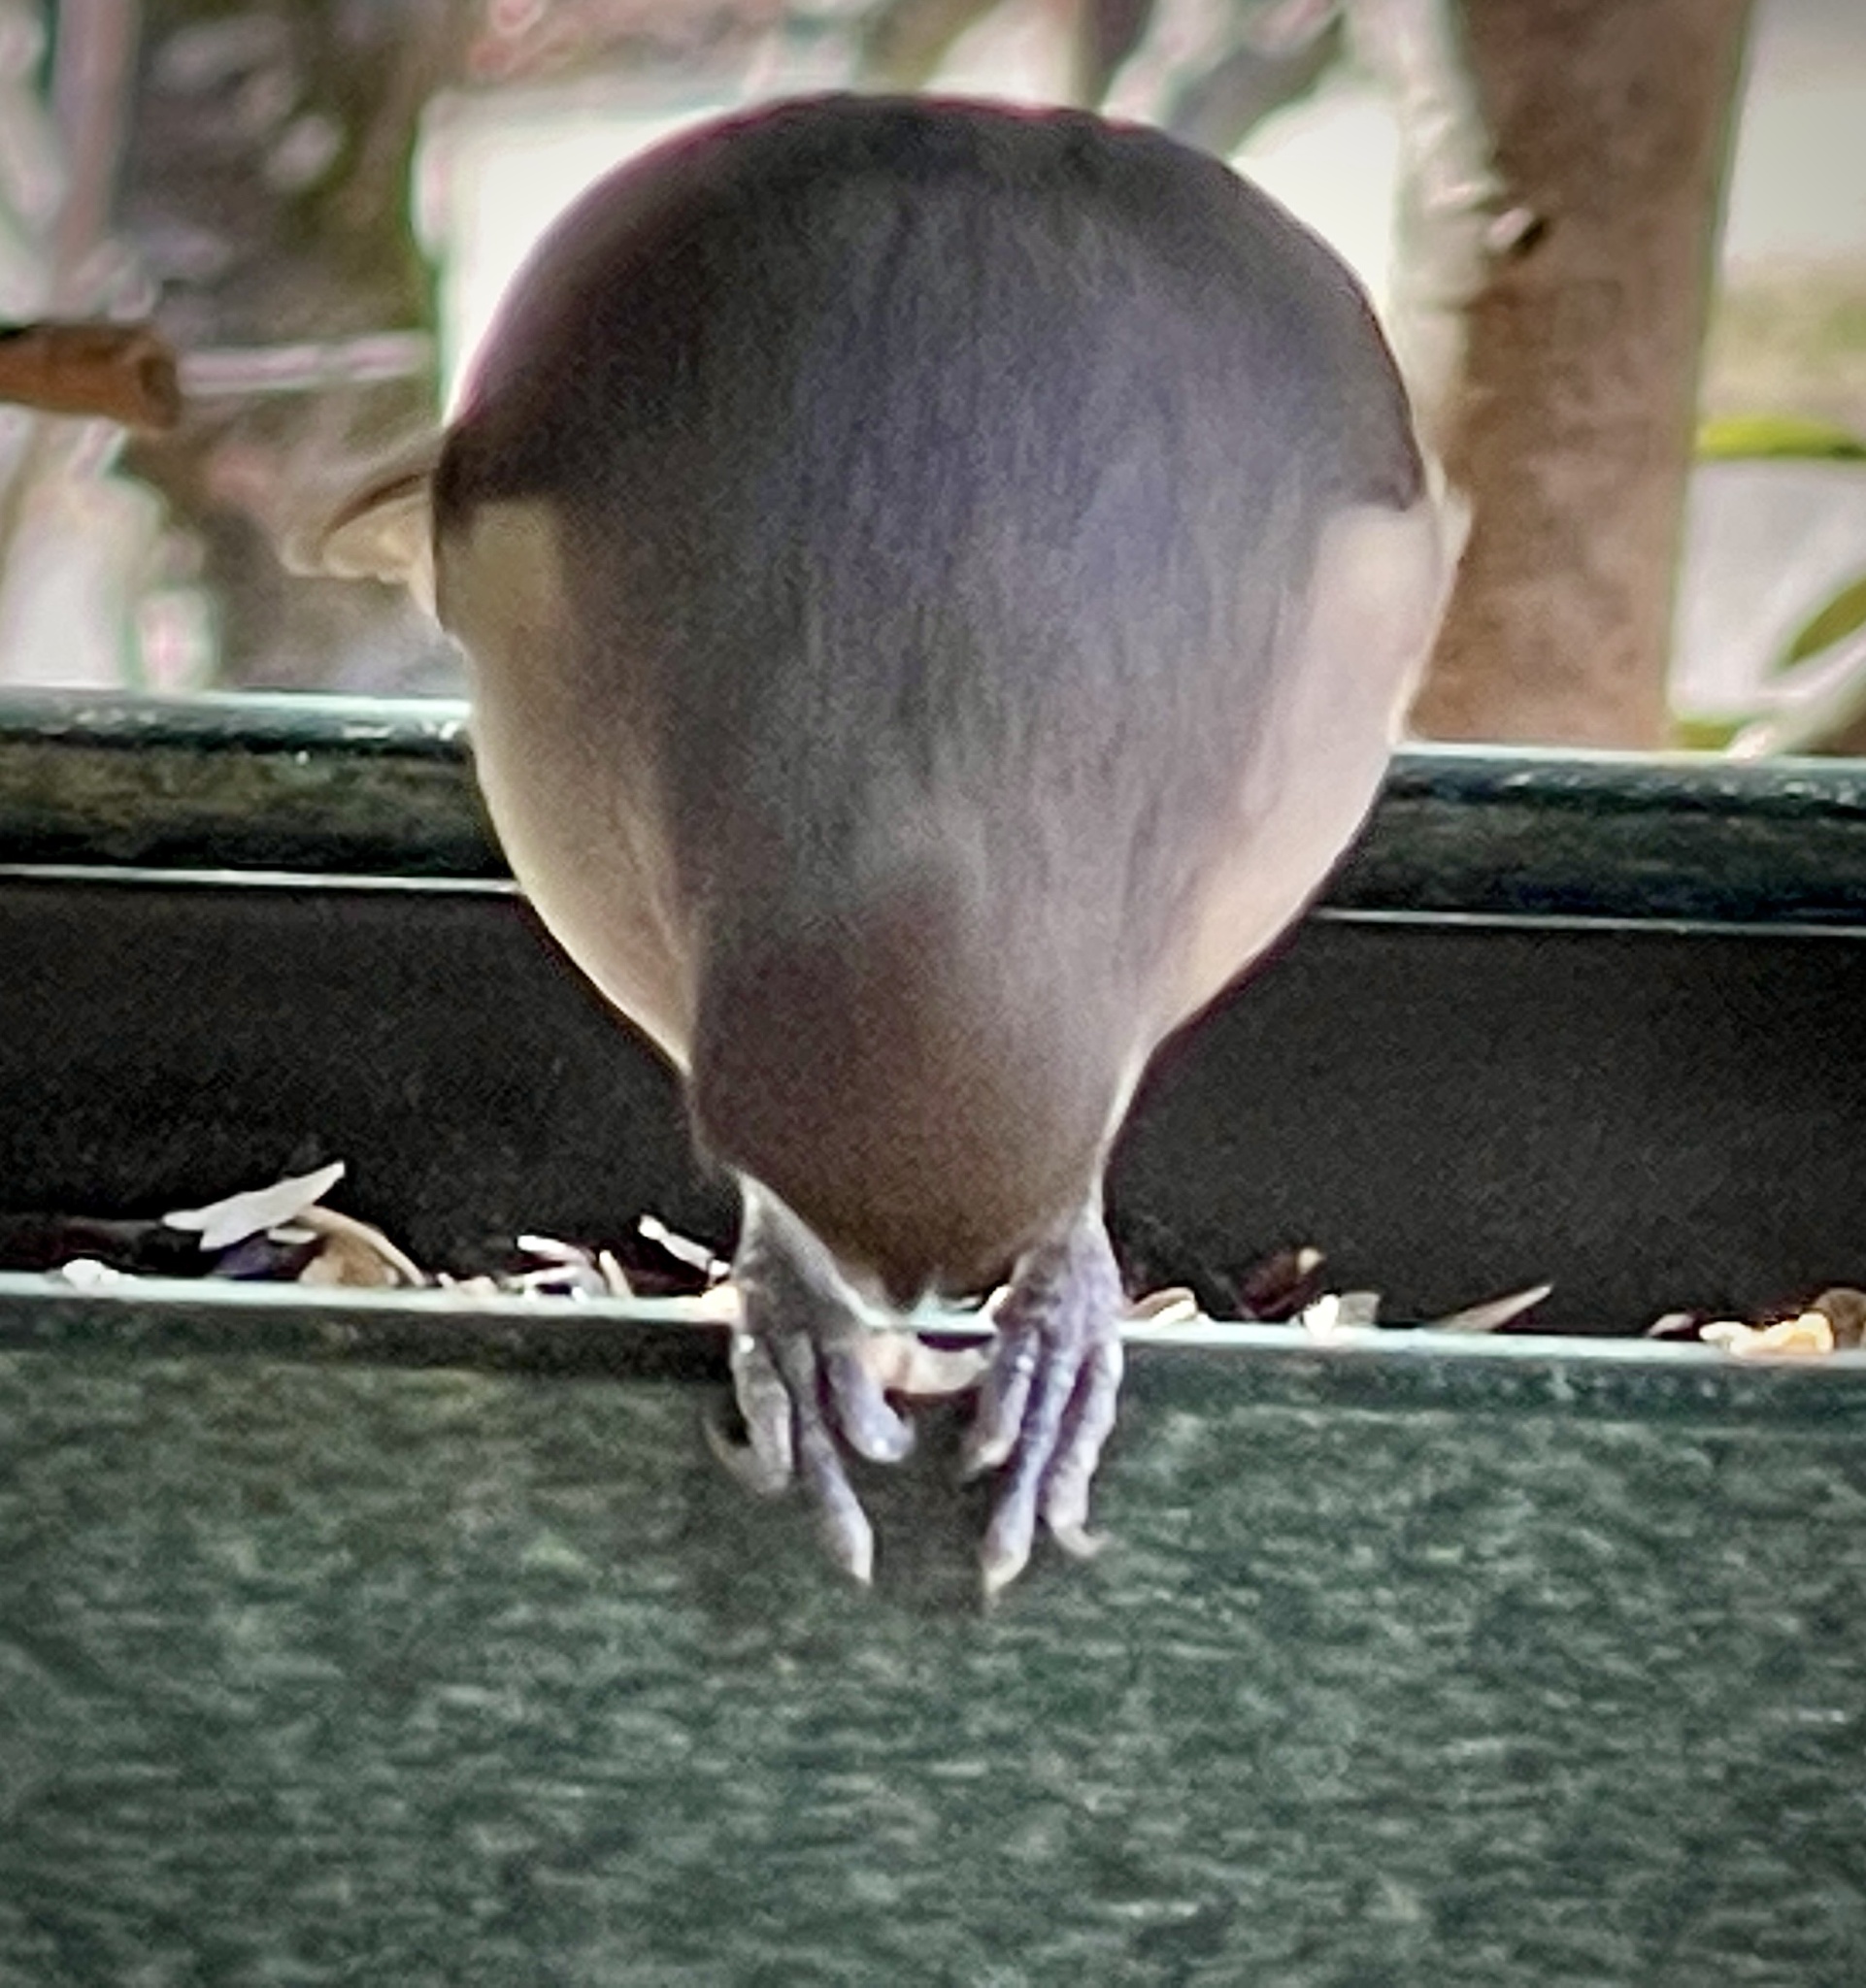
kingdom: Animalia
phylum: Chordata
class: Aves
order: Passeriformes
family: Paridae
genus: Baeolophus
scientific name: Baeolophus bicolor
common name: Tufted titmouse
